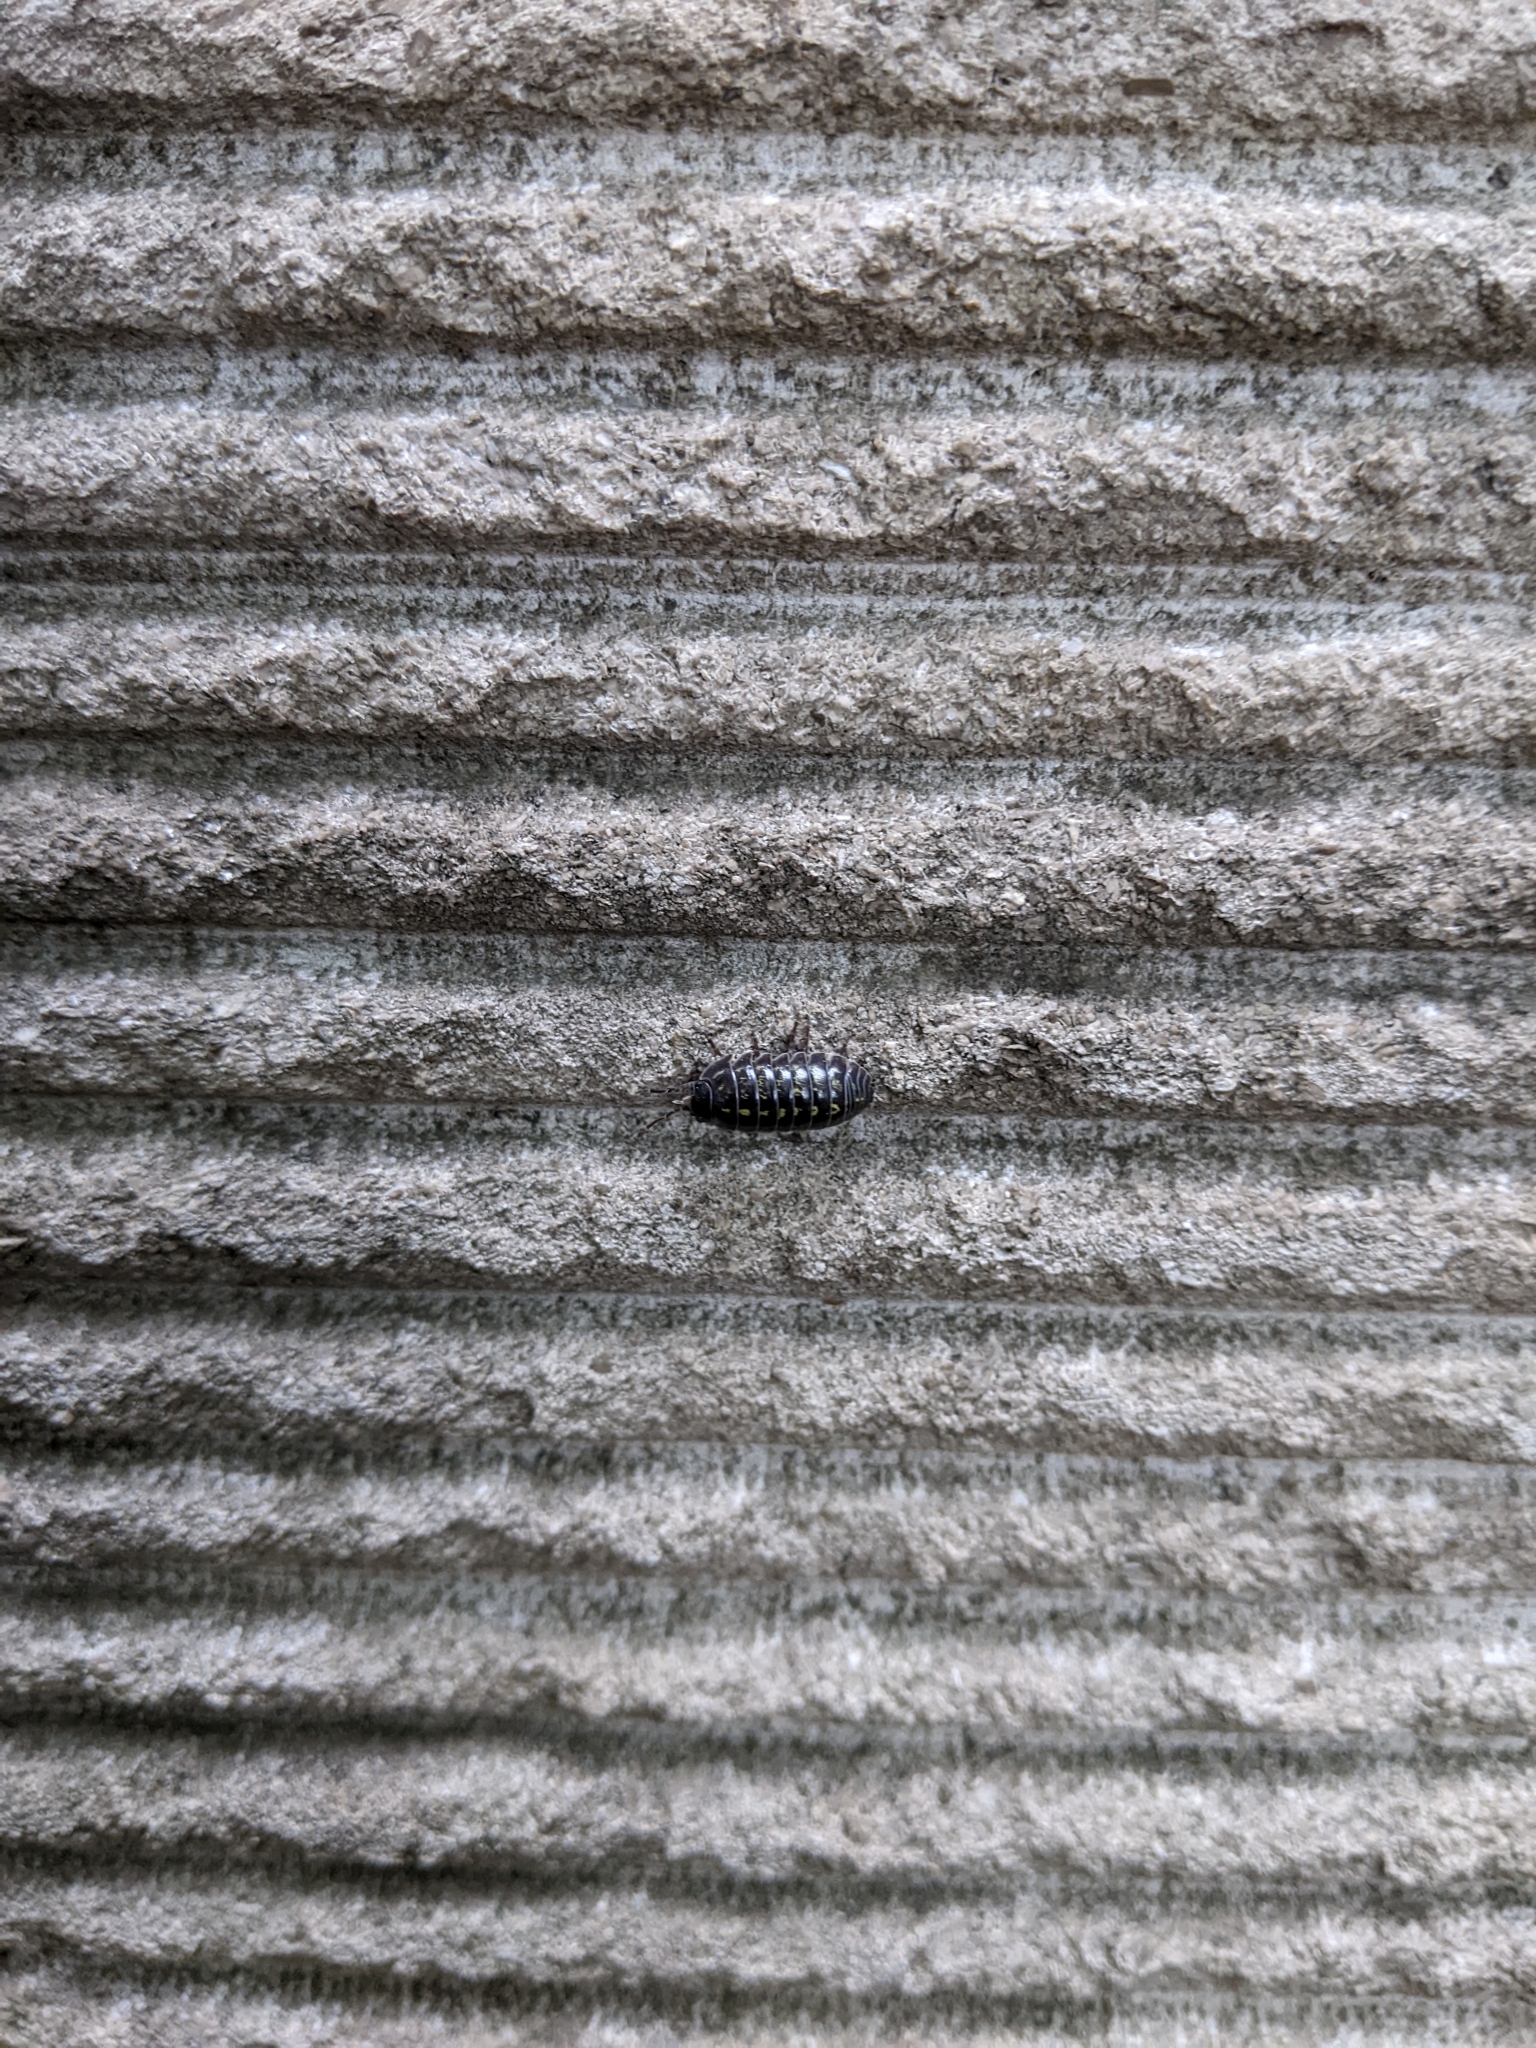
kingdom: Animalia
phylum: Arthropoda
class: Malacostraca
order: Isopoda
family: Armadillidiidae
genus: Armadillidium
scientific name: Armadillidium vulgare
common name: Common pill woodlouse
